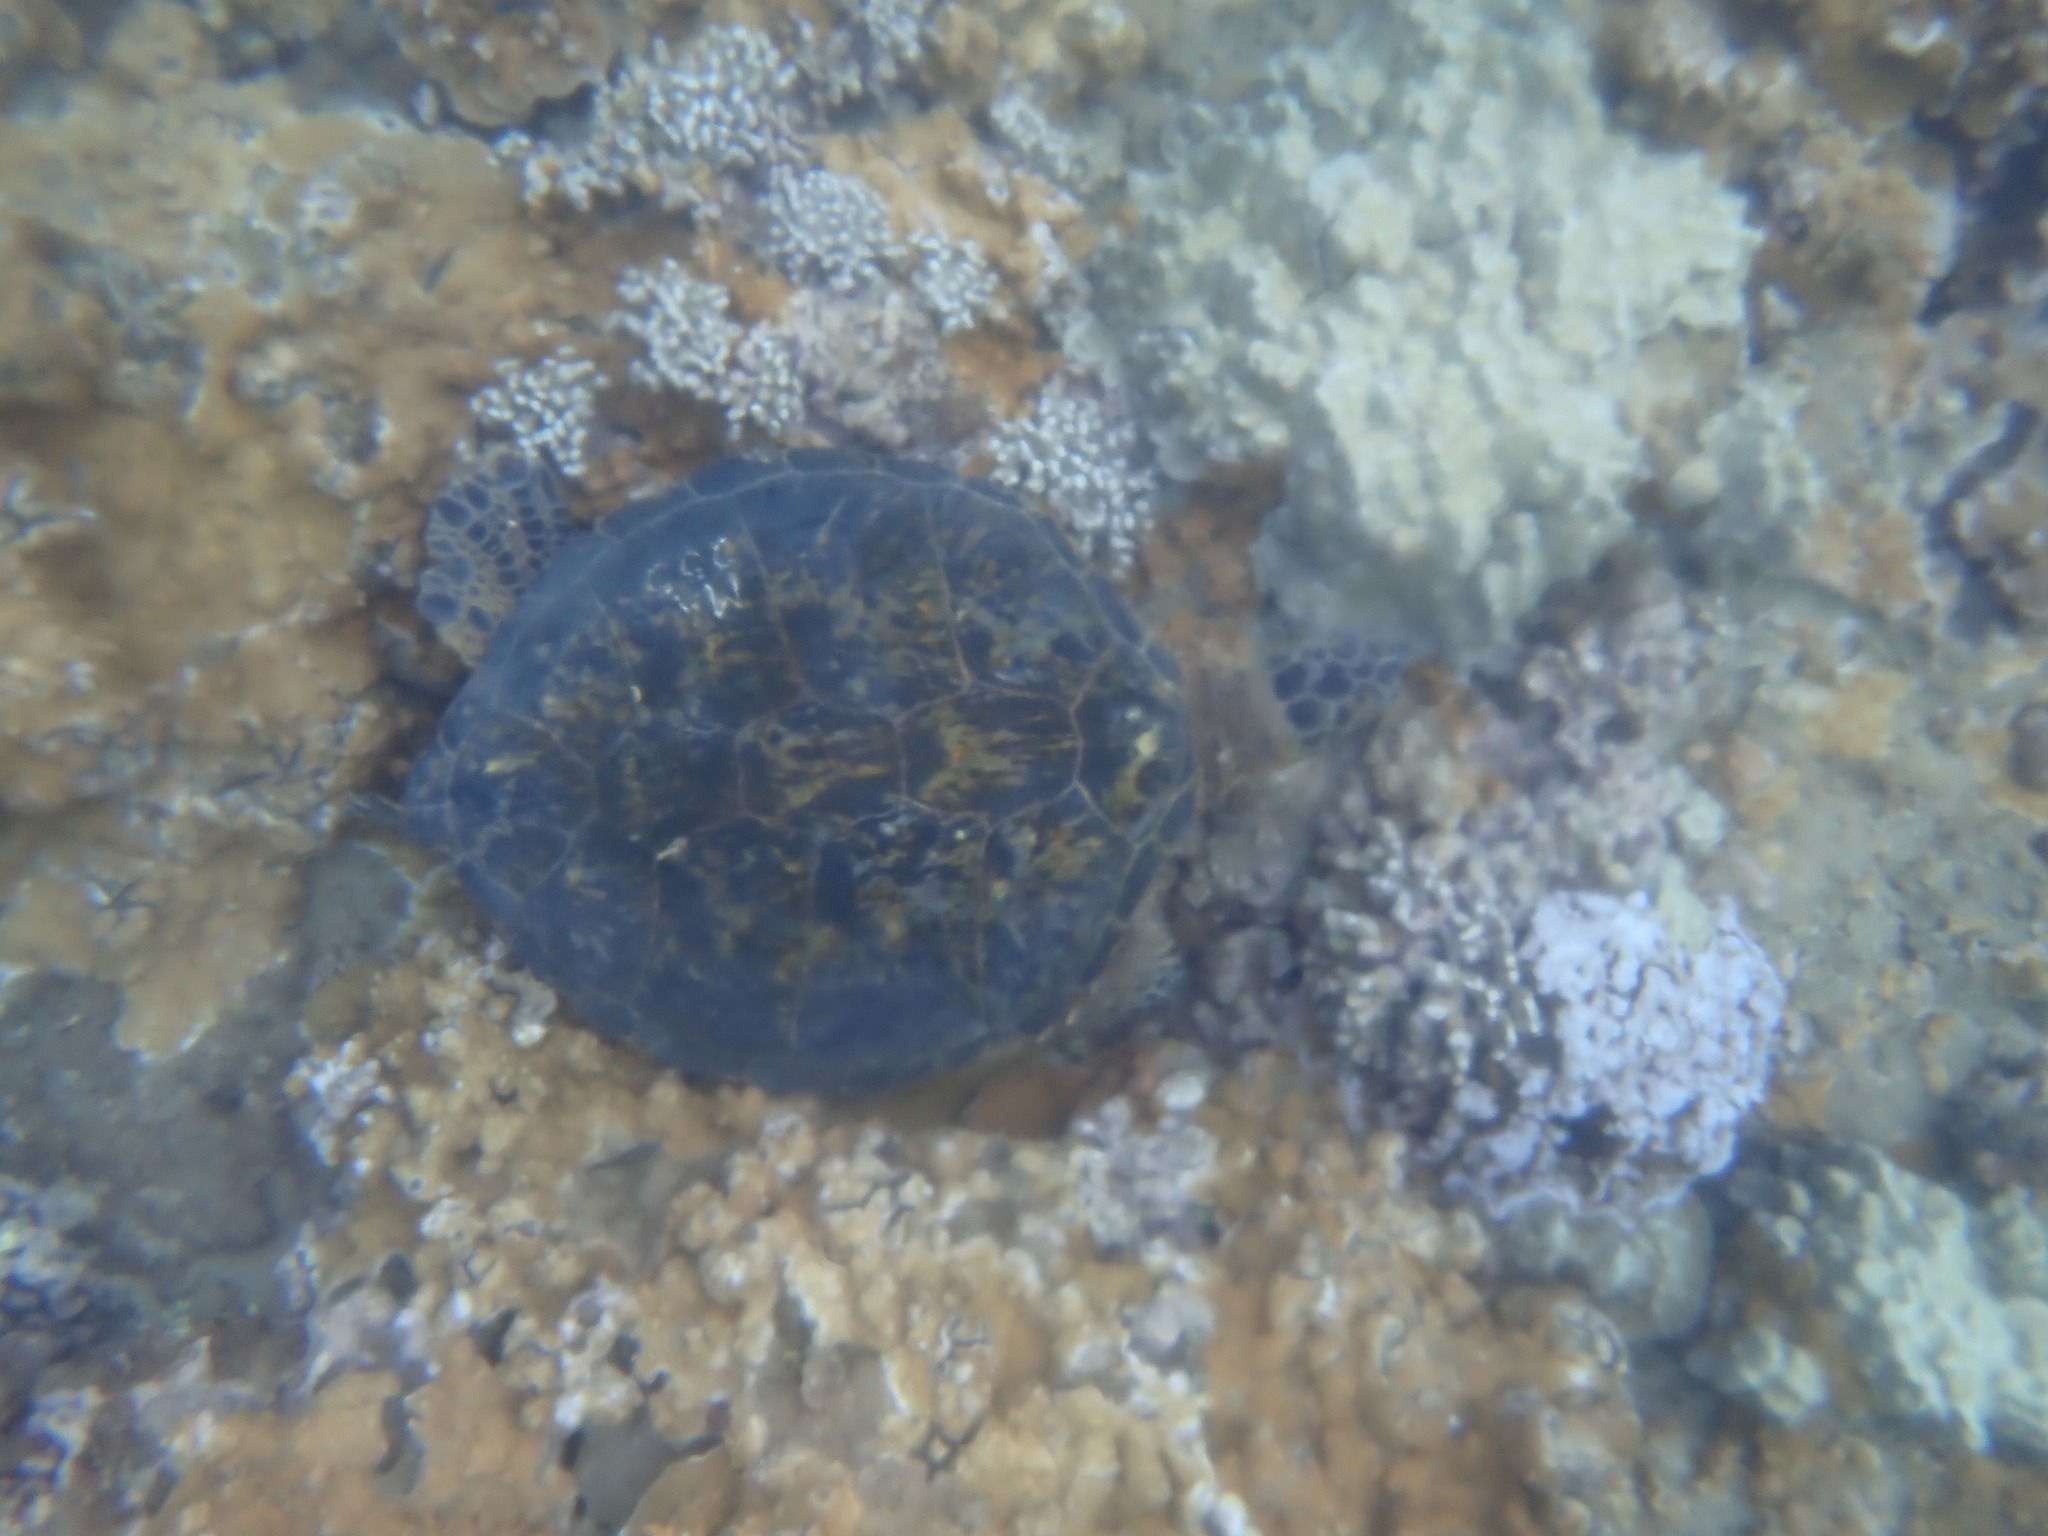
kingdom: Animalia
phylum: Chordata
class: Testudines
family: Cheloniidae
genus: Chelonia
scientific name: Chelonia mydas
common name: Green turtle
